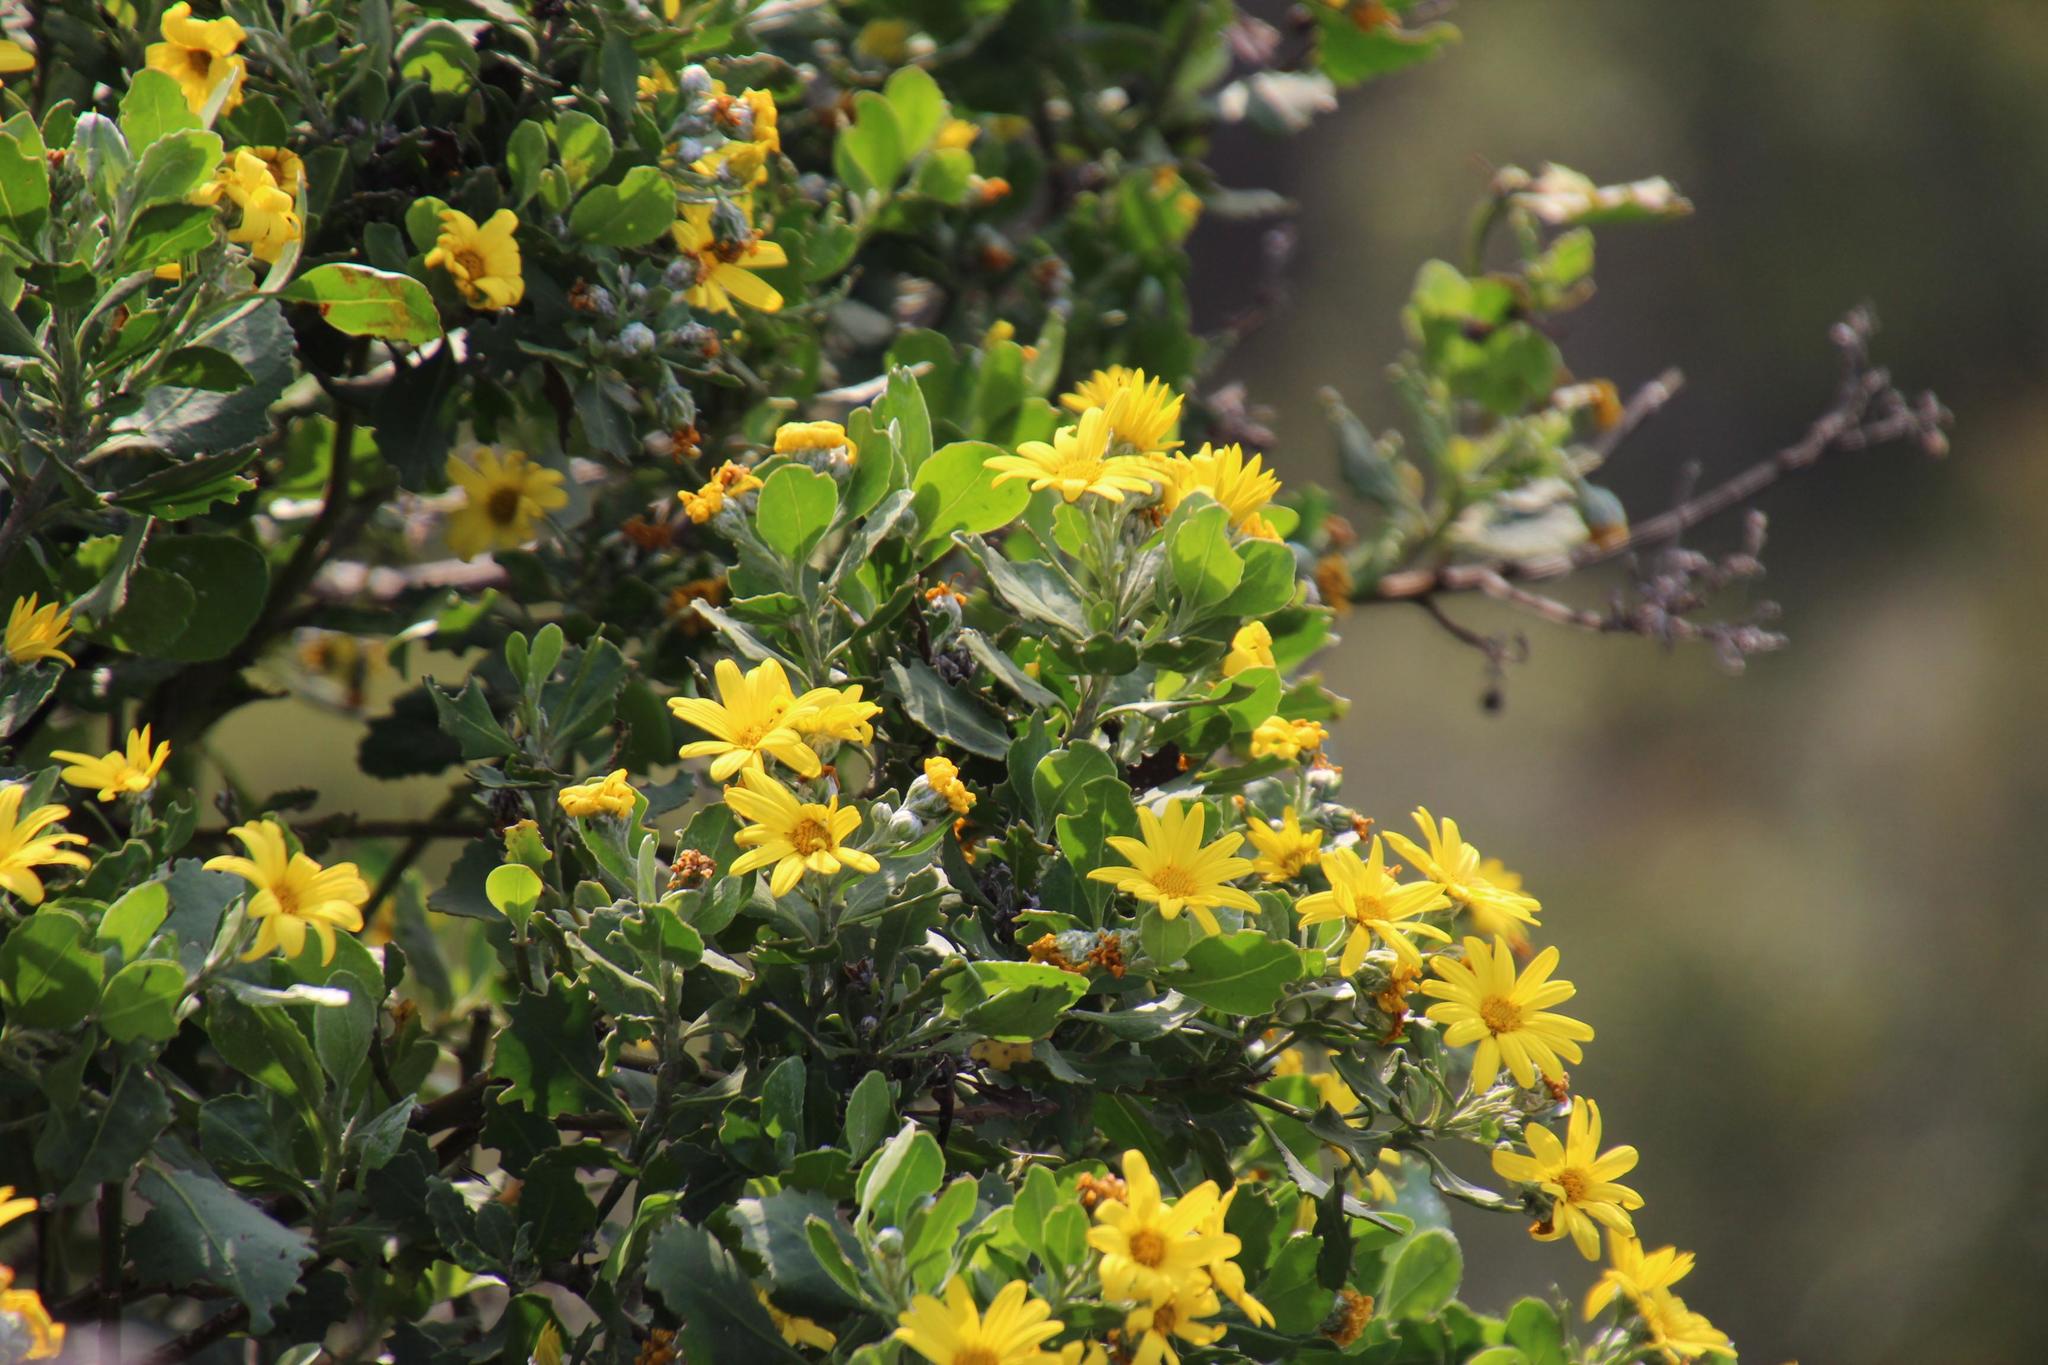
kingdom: Plantae
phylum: Tracheophyta
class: Magnoliopsida
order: Asterales
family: Asteraceae
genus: Osteospermum
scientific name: Osteospermum moniliferum
